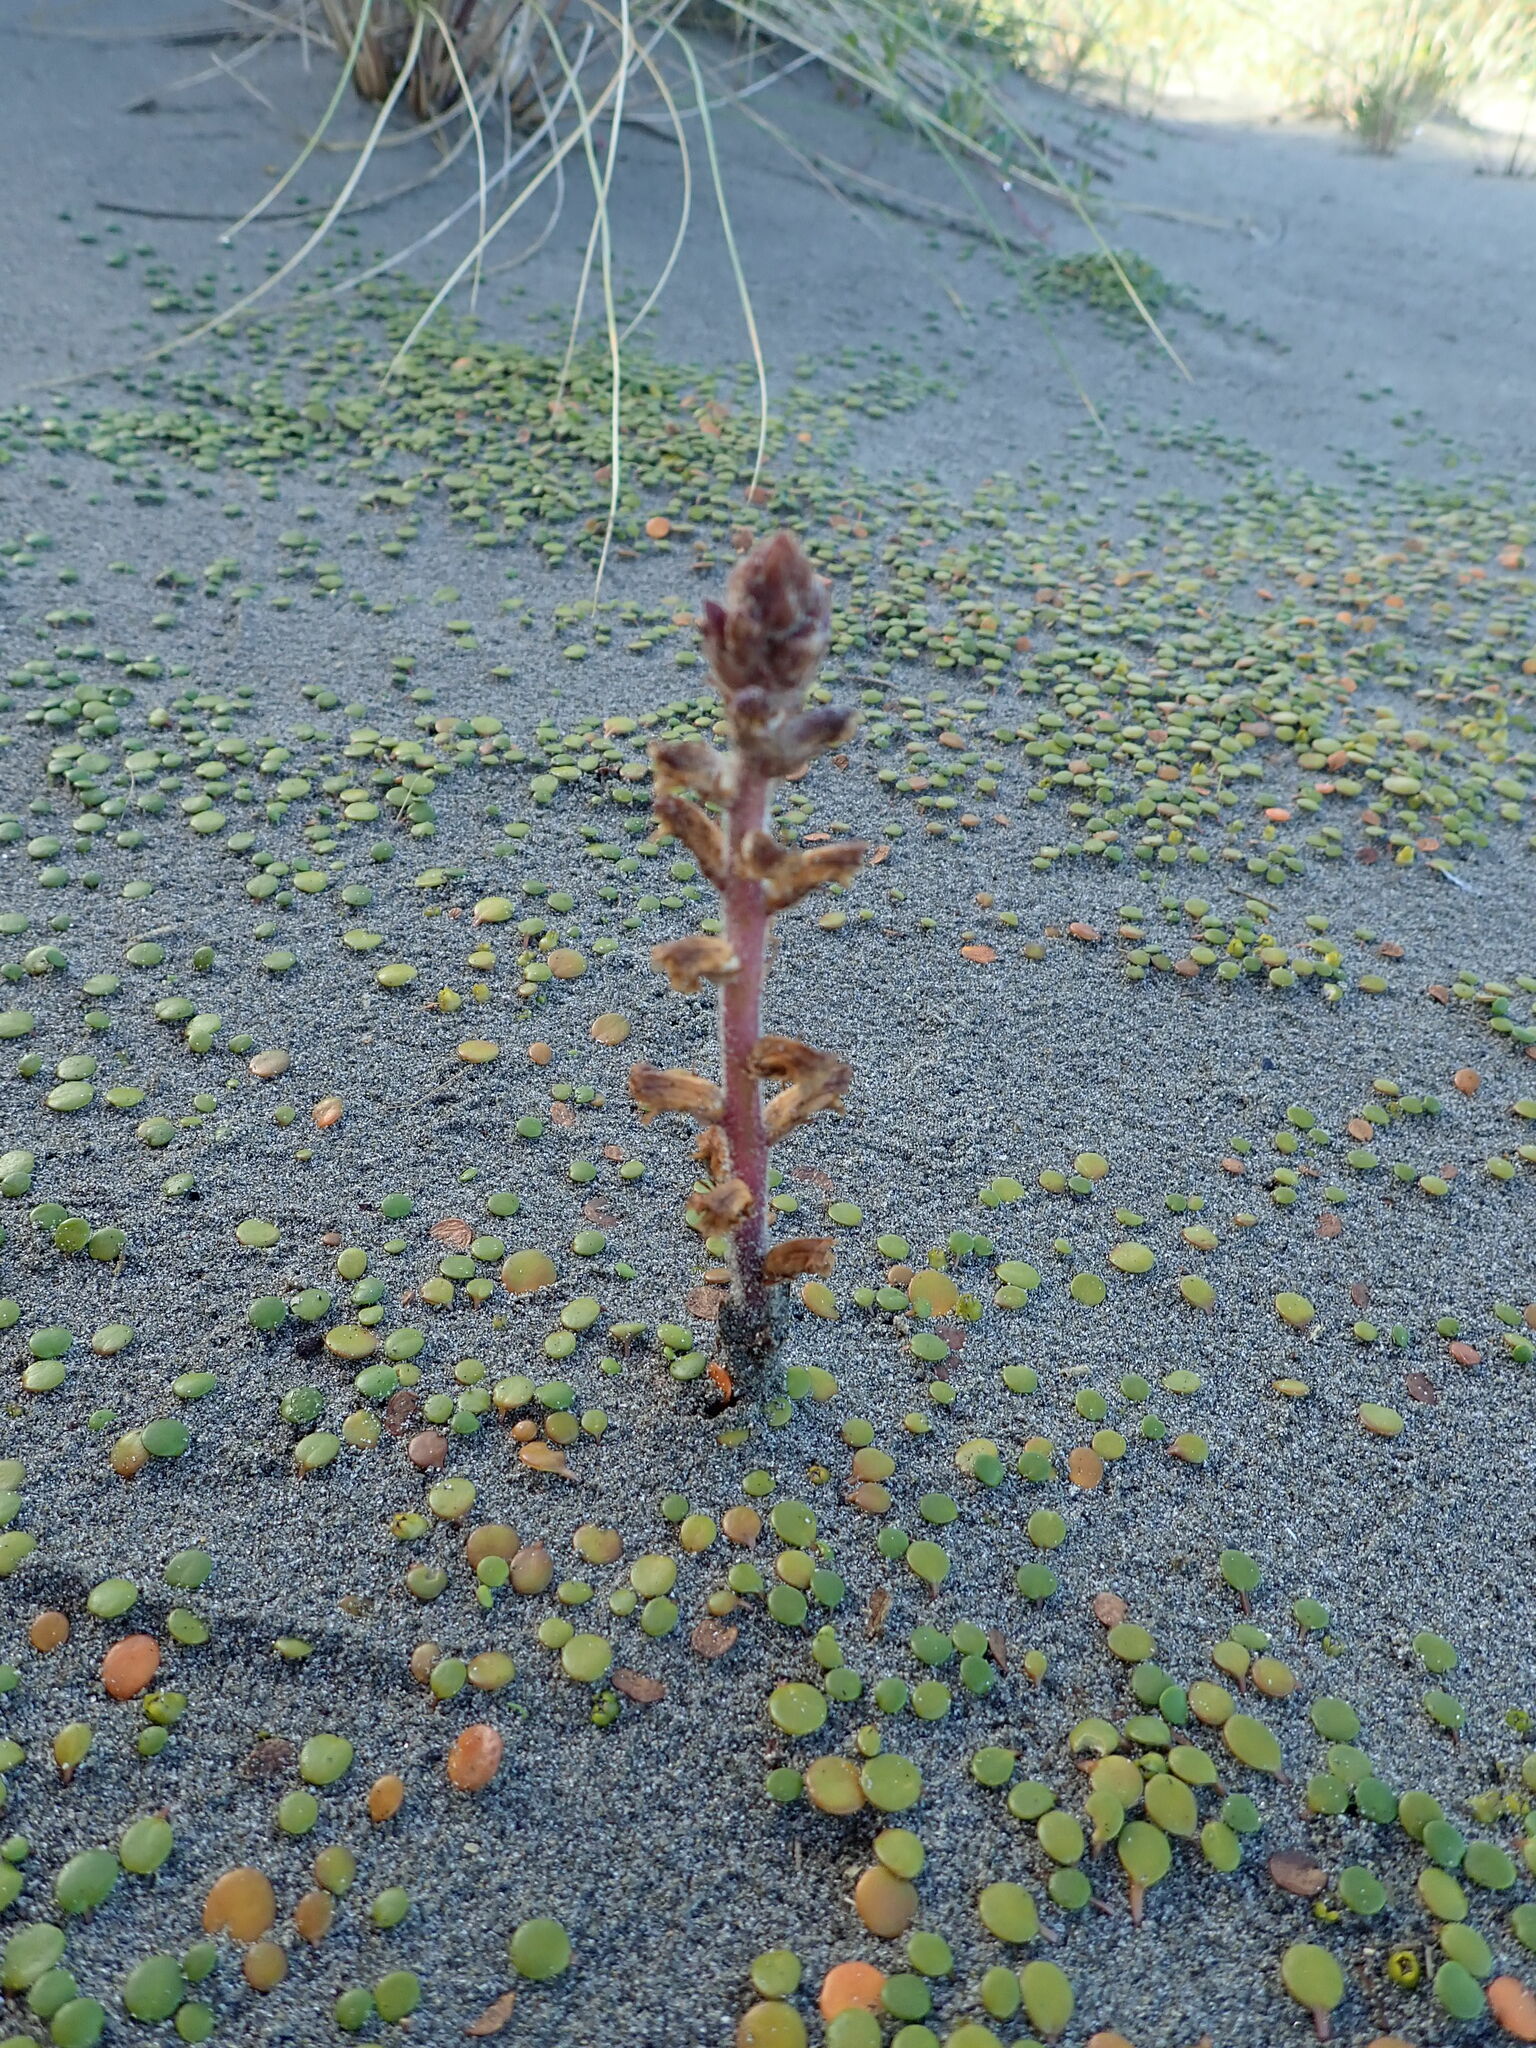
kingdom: Plantae
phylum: Tracheophyta
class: Magnoliopsida
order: Lamiales
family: Orobanchaceae
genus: Orobanche
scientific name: Orobanche minor
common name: Common broomrape
